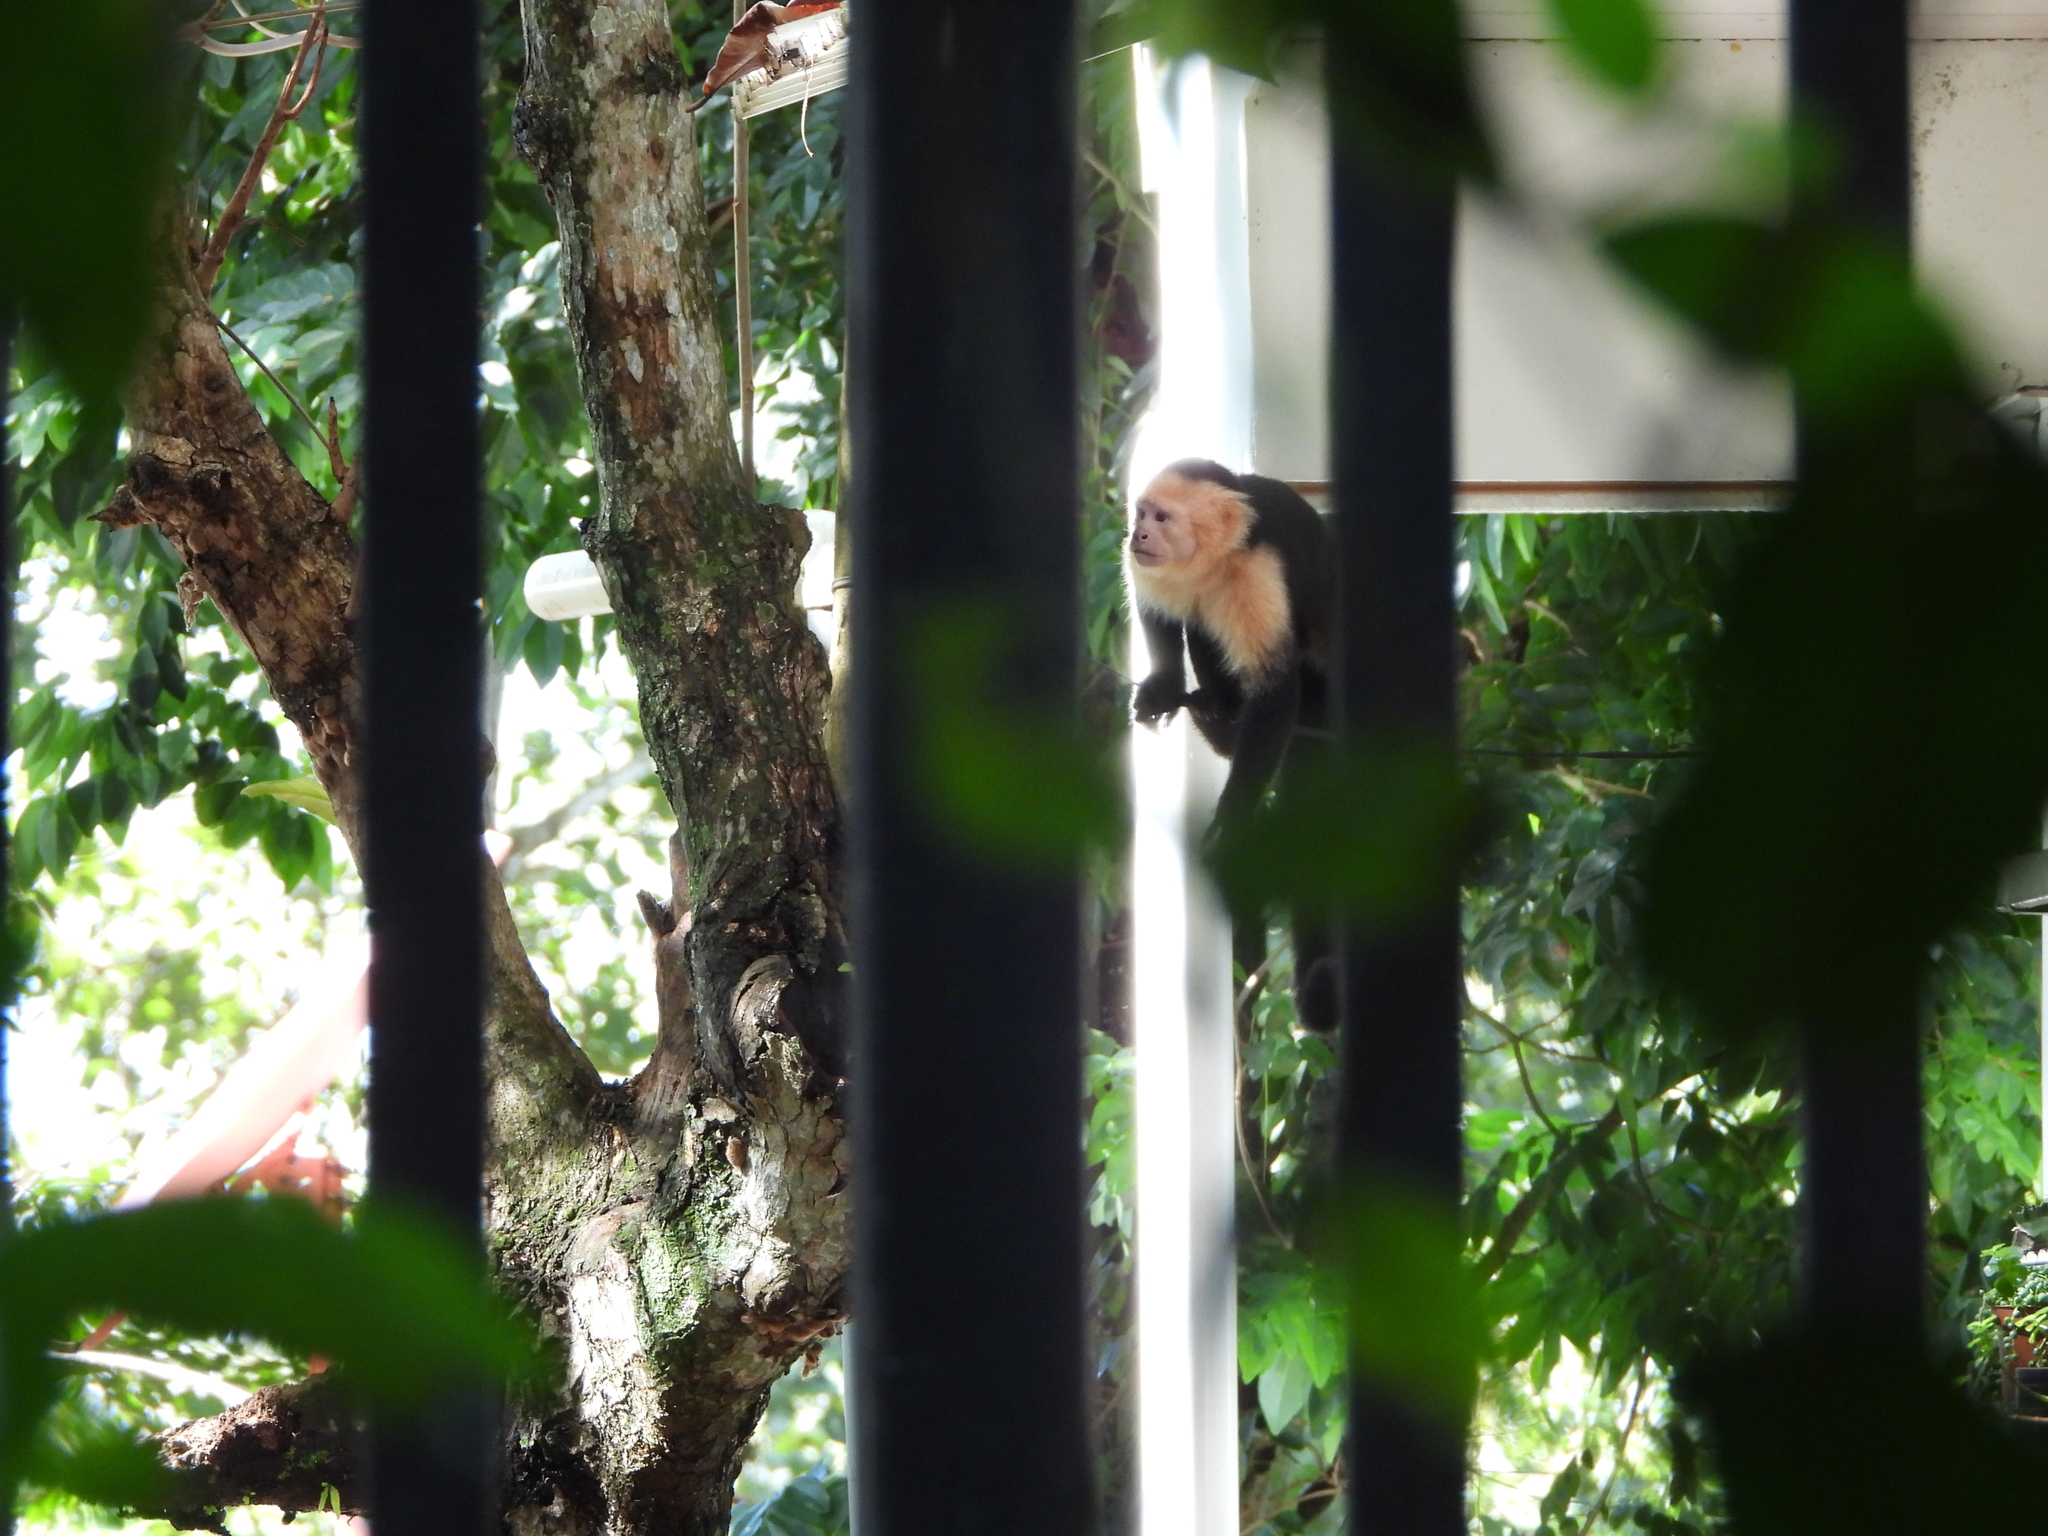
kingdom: Animalia
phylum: Chordata
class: Mammalia
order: Primates
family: Cebidae
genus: Cebus
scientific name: Cebus imitator
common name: Panamanian white-faced capuchin
